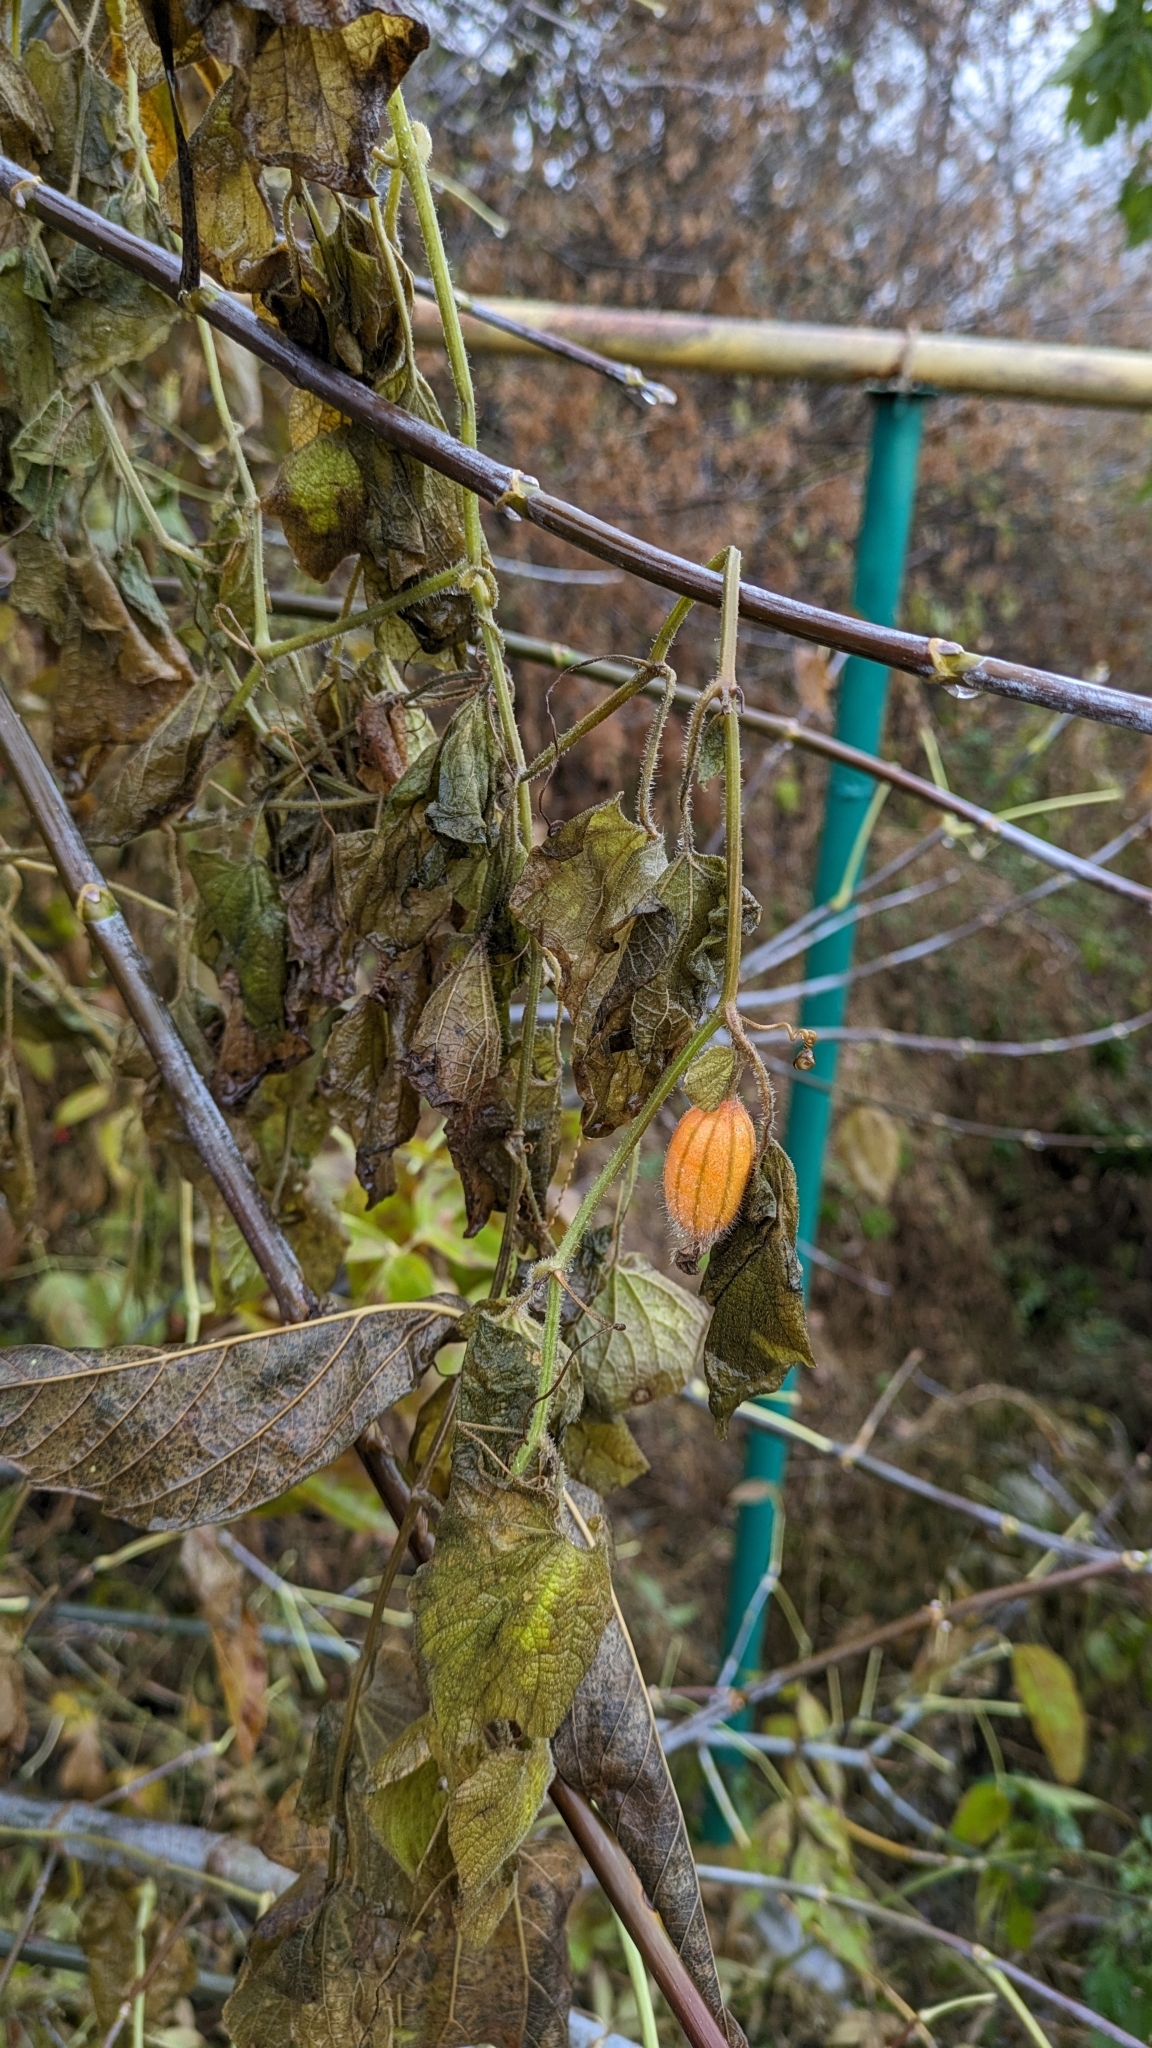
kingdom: Plantae
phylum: Tracheophyta
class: Magnoliopsida
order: Cucurbitales
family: Cucurbitaceae
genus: Thladiantha
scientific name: Thladiantha dubia
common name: Manchu tubergourd
